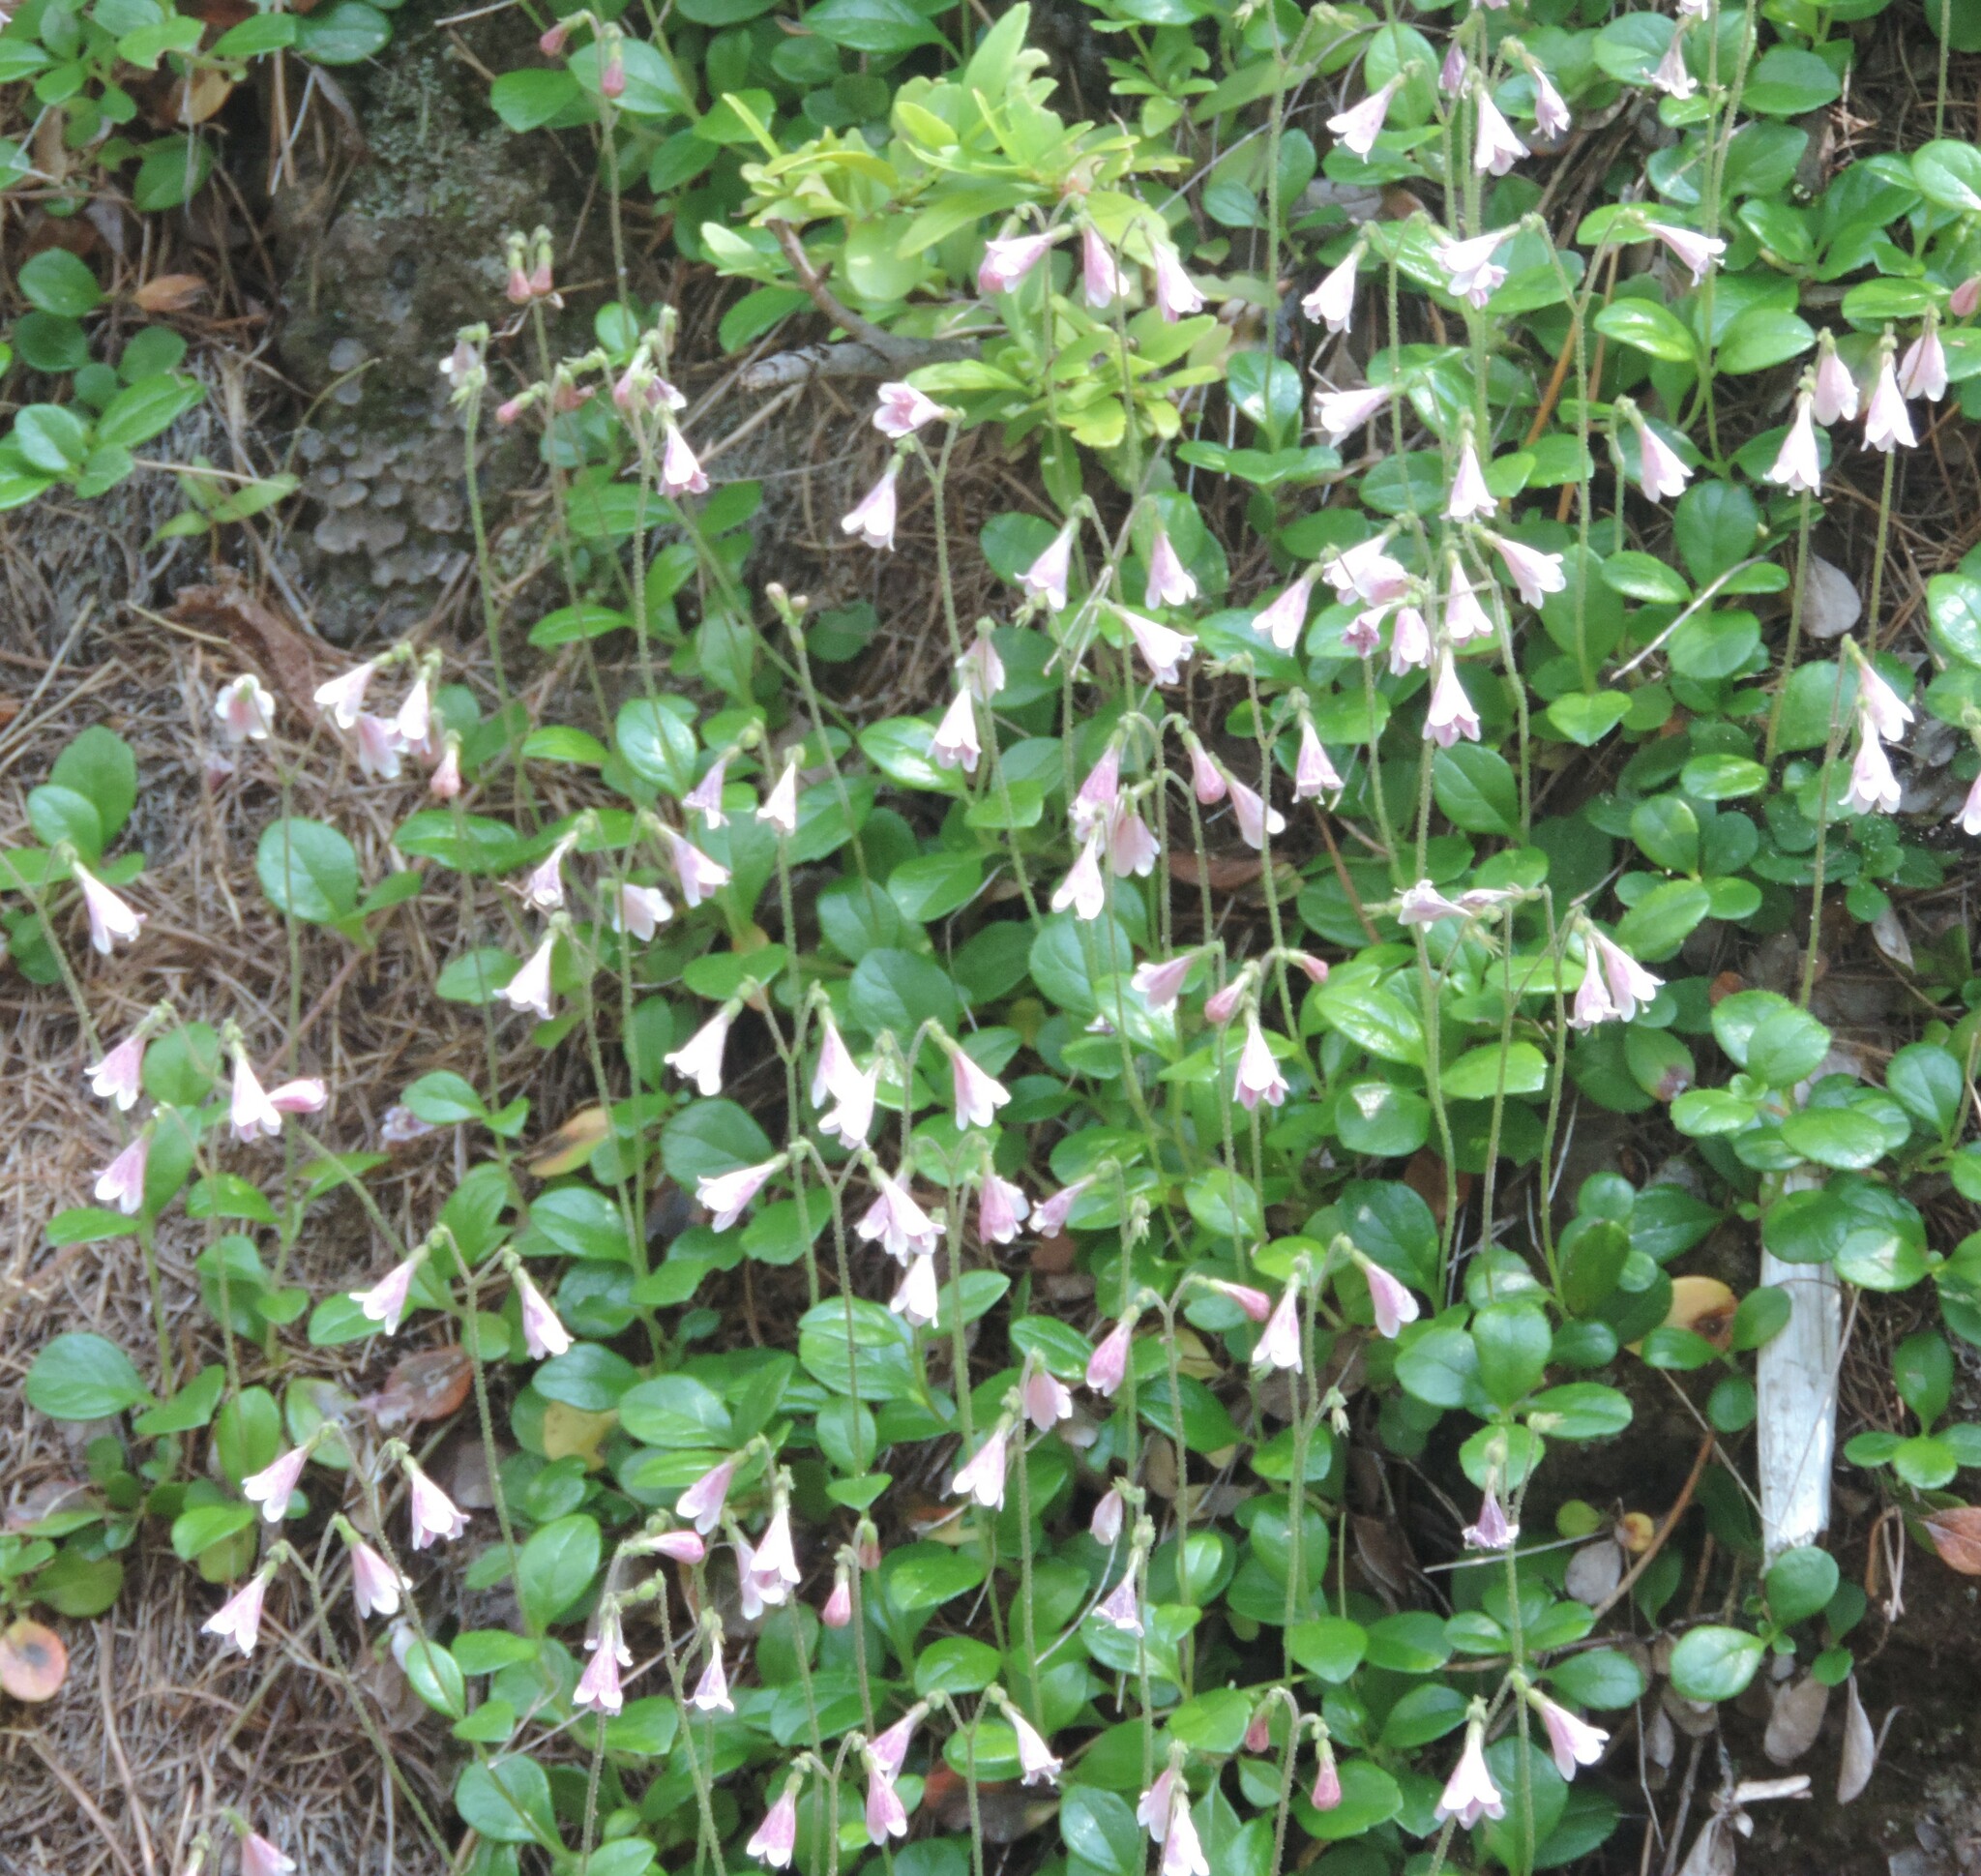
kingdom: Plantae
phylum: Tracheophyta
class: Magnoliopsida
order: Dipsacales
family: Caprifoliaceae
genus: Linnaea
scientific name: Linnaea borealis
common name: Twinflower
